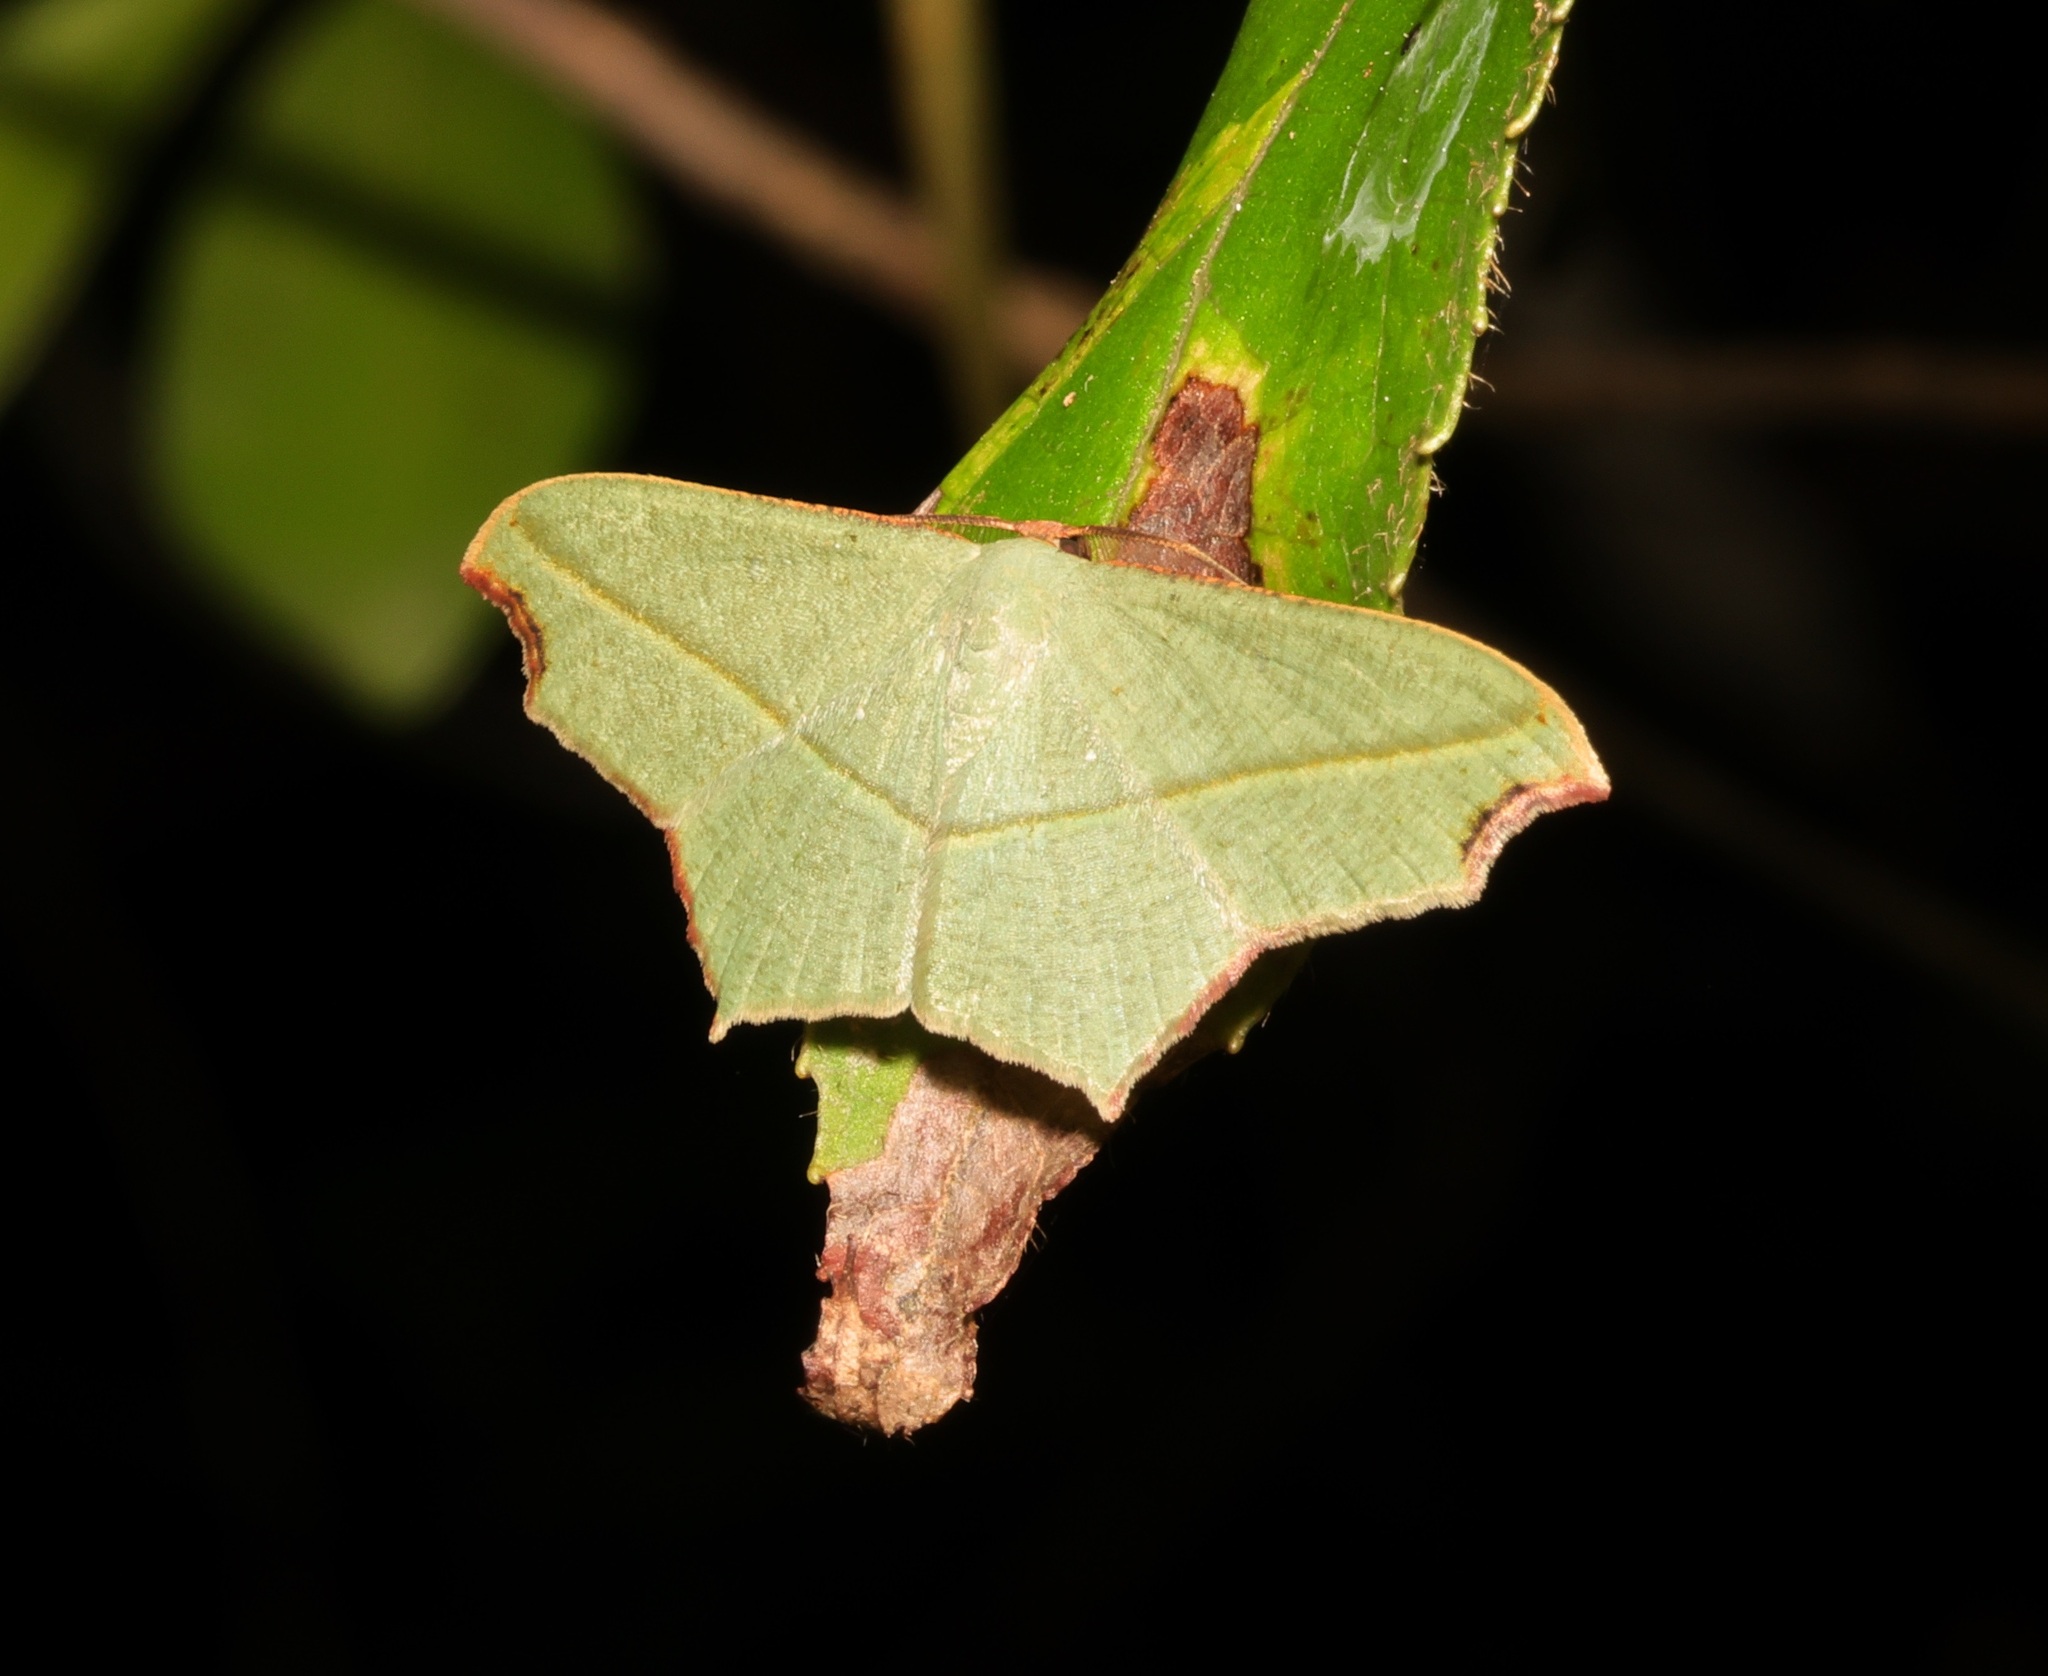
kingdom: Animalia
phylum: Arthropoda
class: Insecta
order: Lepidoptera
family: Geometridae
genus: Traminda
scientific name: Traminda aventiaria
